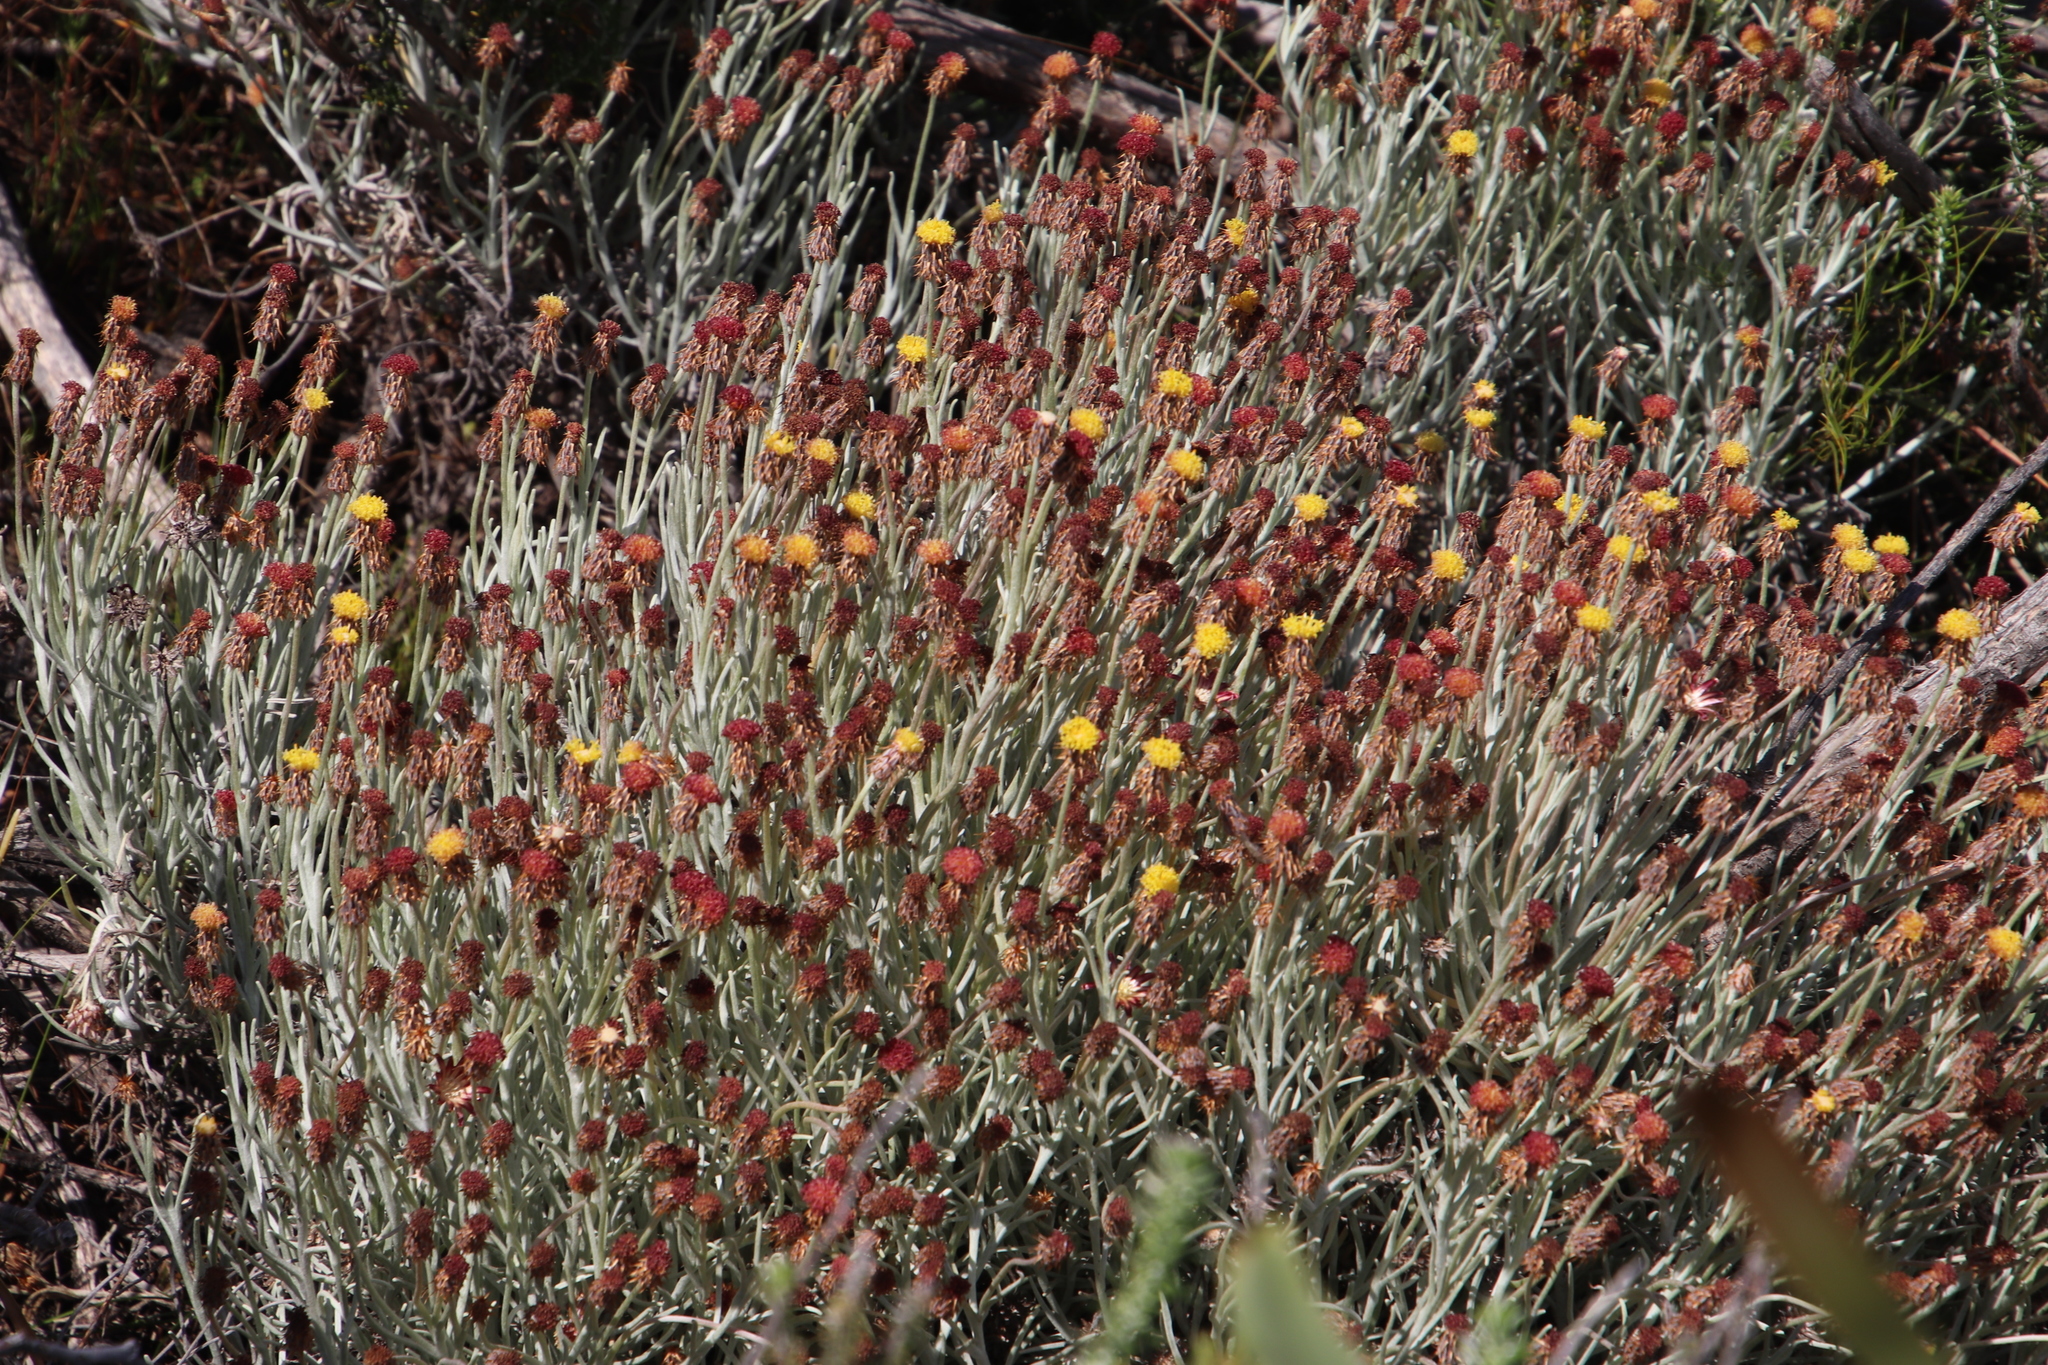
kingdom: Plantae
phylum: Tracheophyta
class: Magnoliopsida
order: Asterales
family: Asteraceae
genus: Syncarpha
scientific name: Syncarpha gnaphaloides
